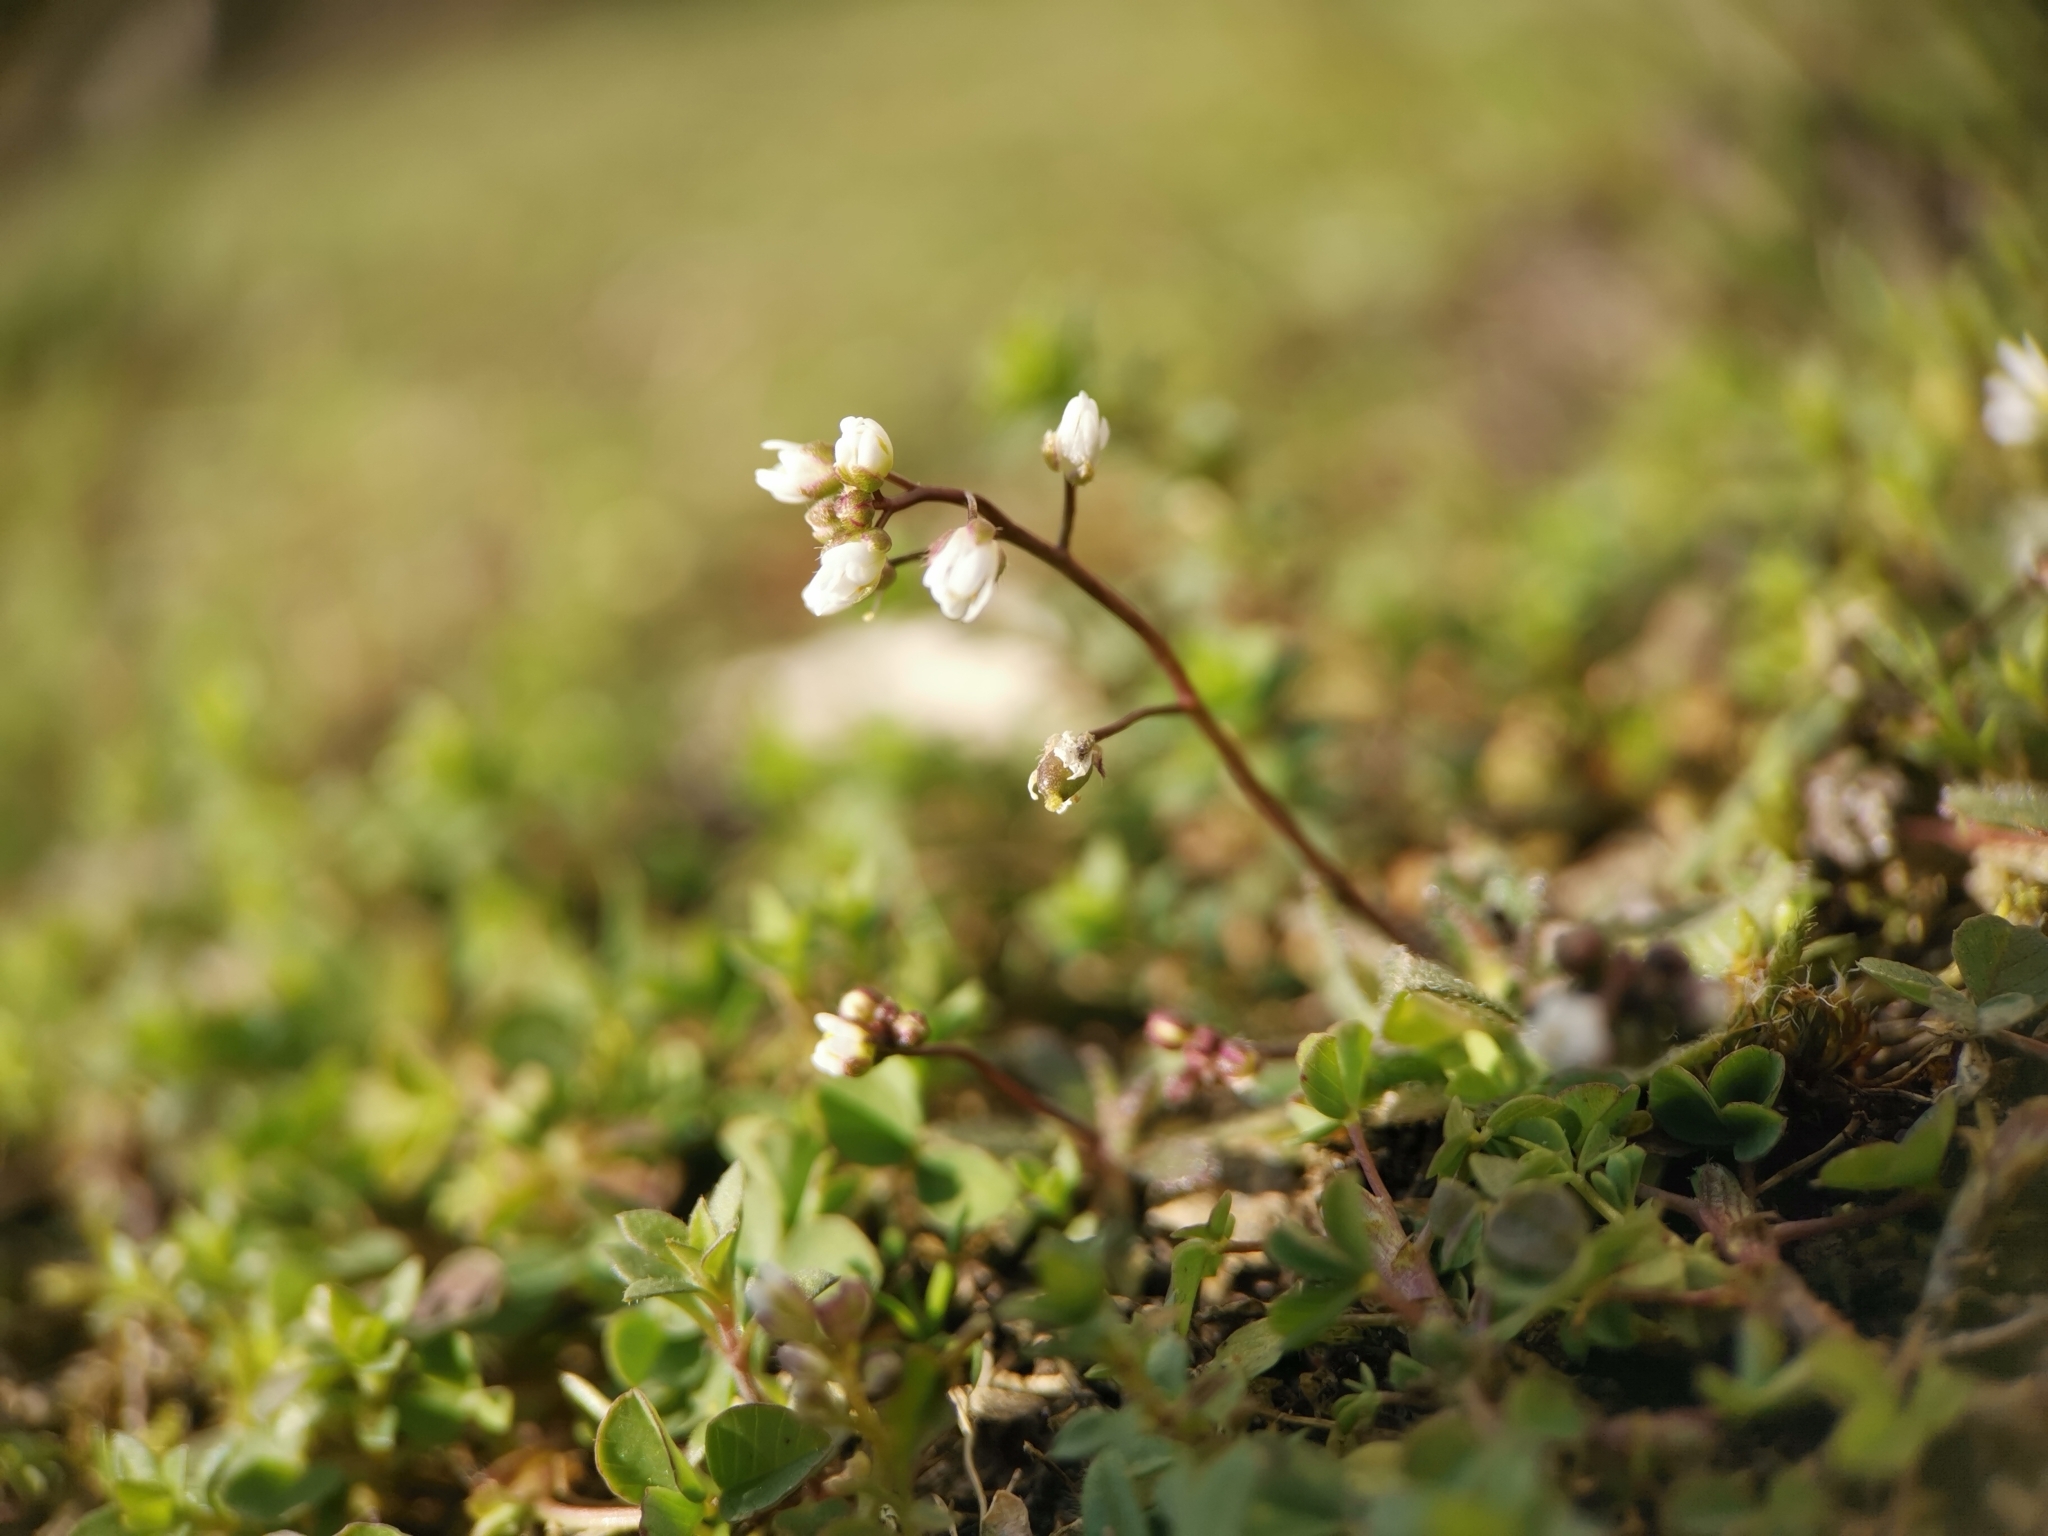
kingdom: Plantae
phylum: Tracheophyta
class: Magnoliopsida
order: Brassicales
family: Brassicaceae
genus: Draba
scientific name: Draba verna
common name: Spring draba
